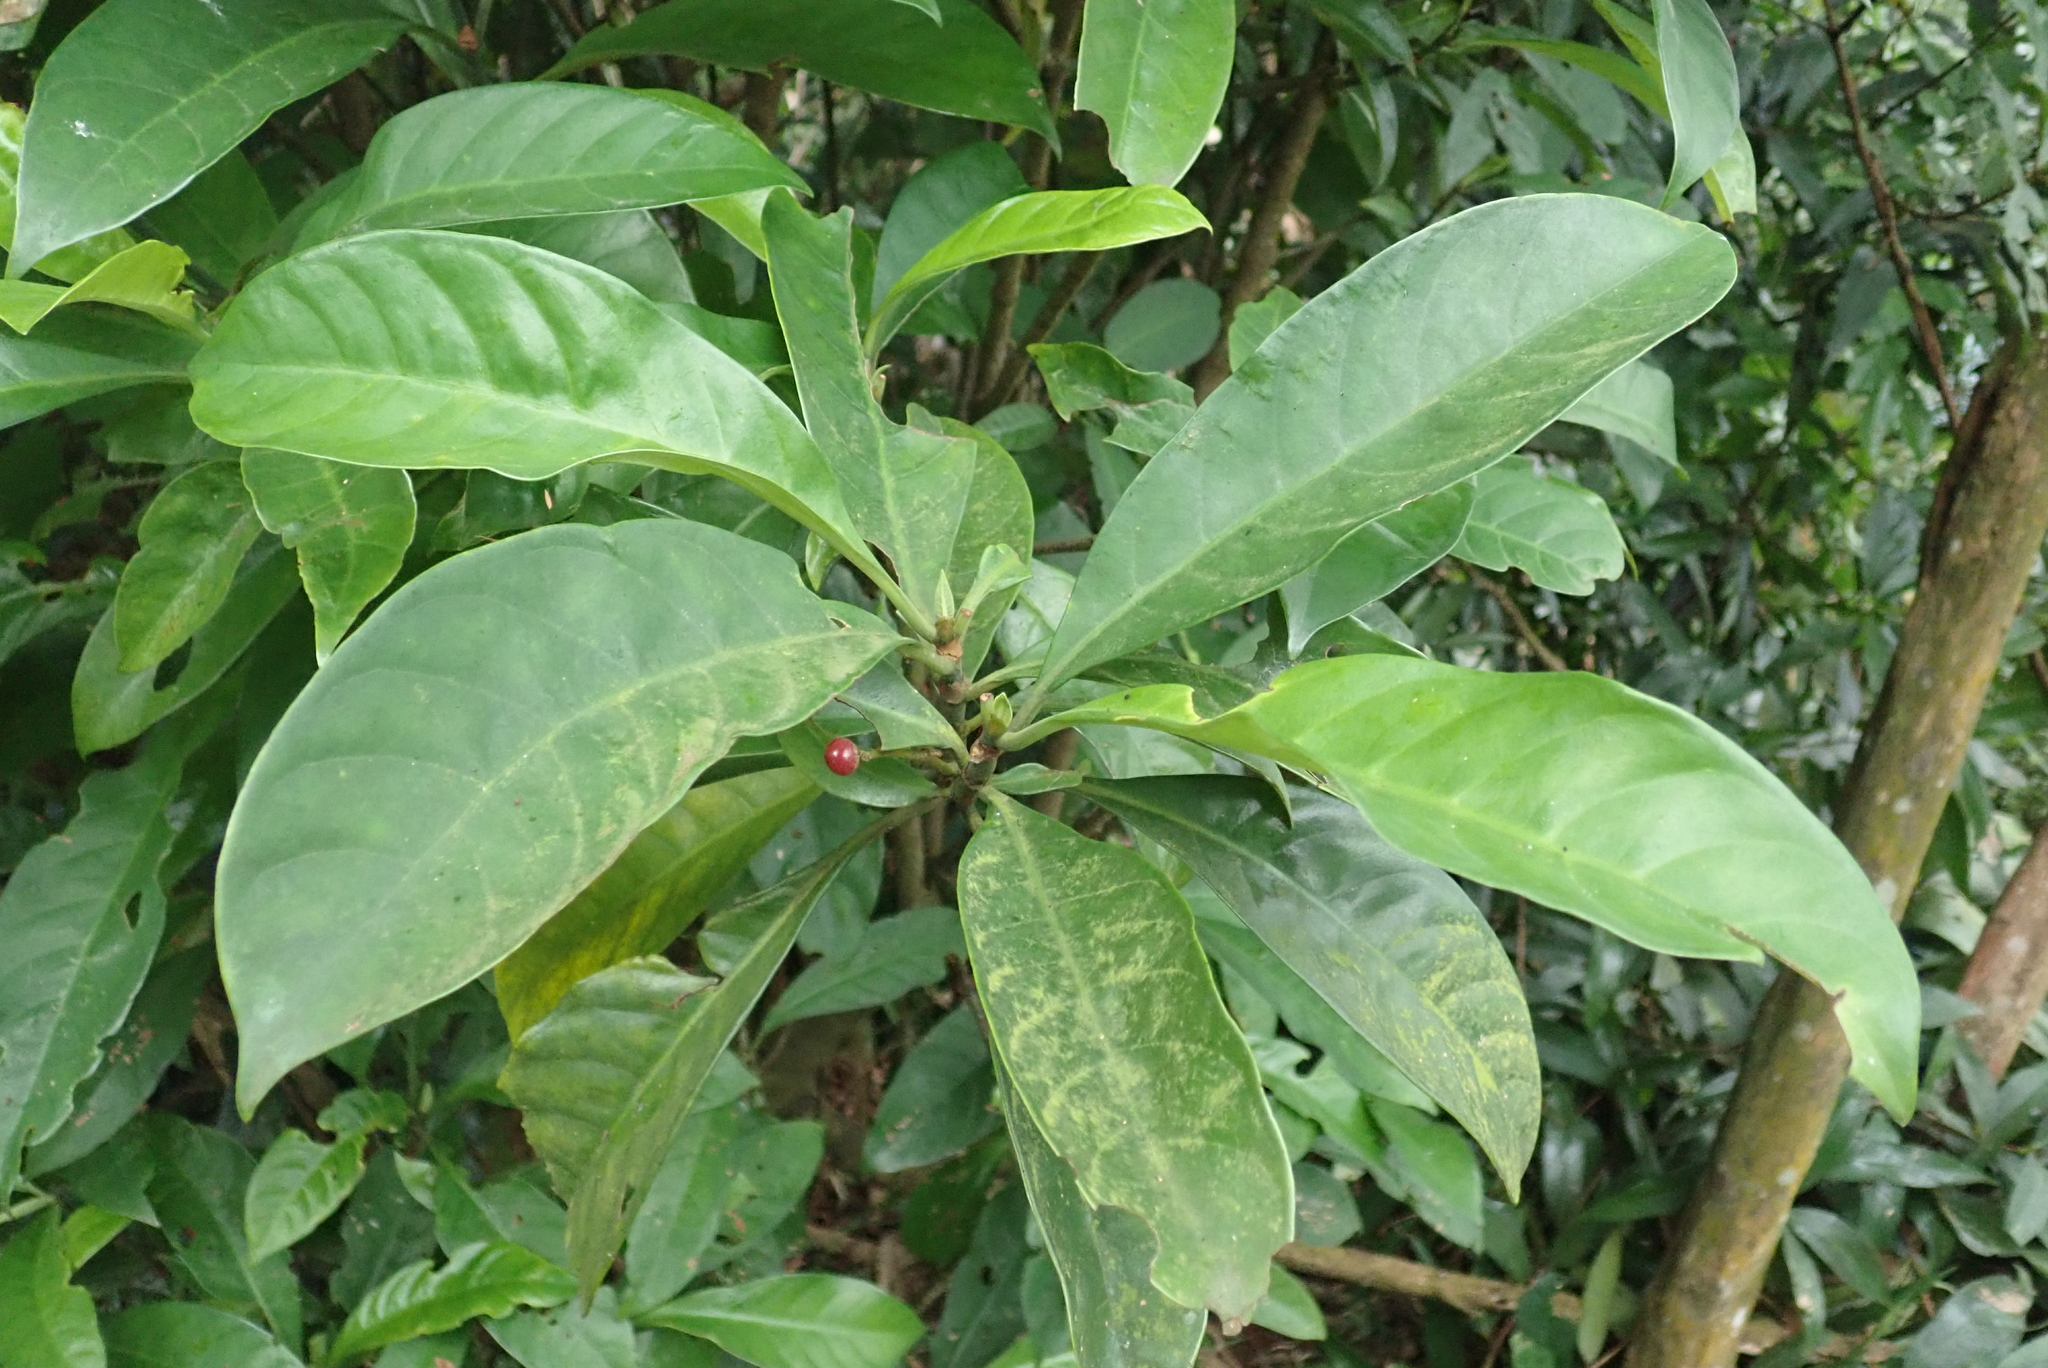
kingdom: Plantae
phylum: Tracheophyta
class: Magnoliopsida
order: Gentianales
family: Rubiaceae
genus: Psychotria
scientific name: Psychotria asiatica
